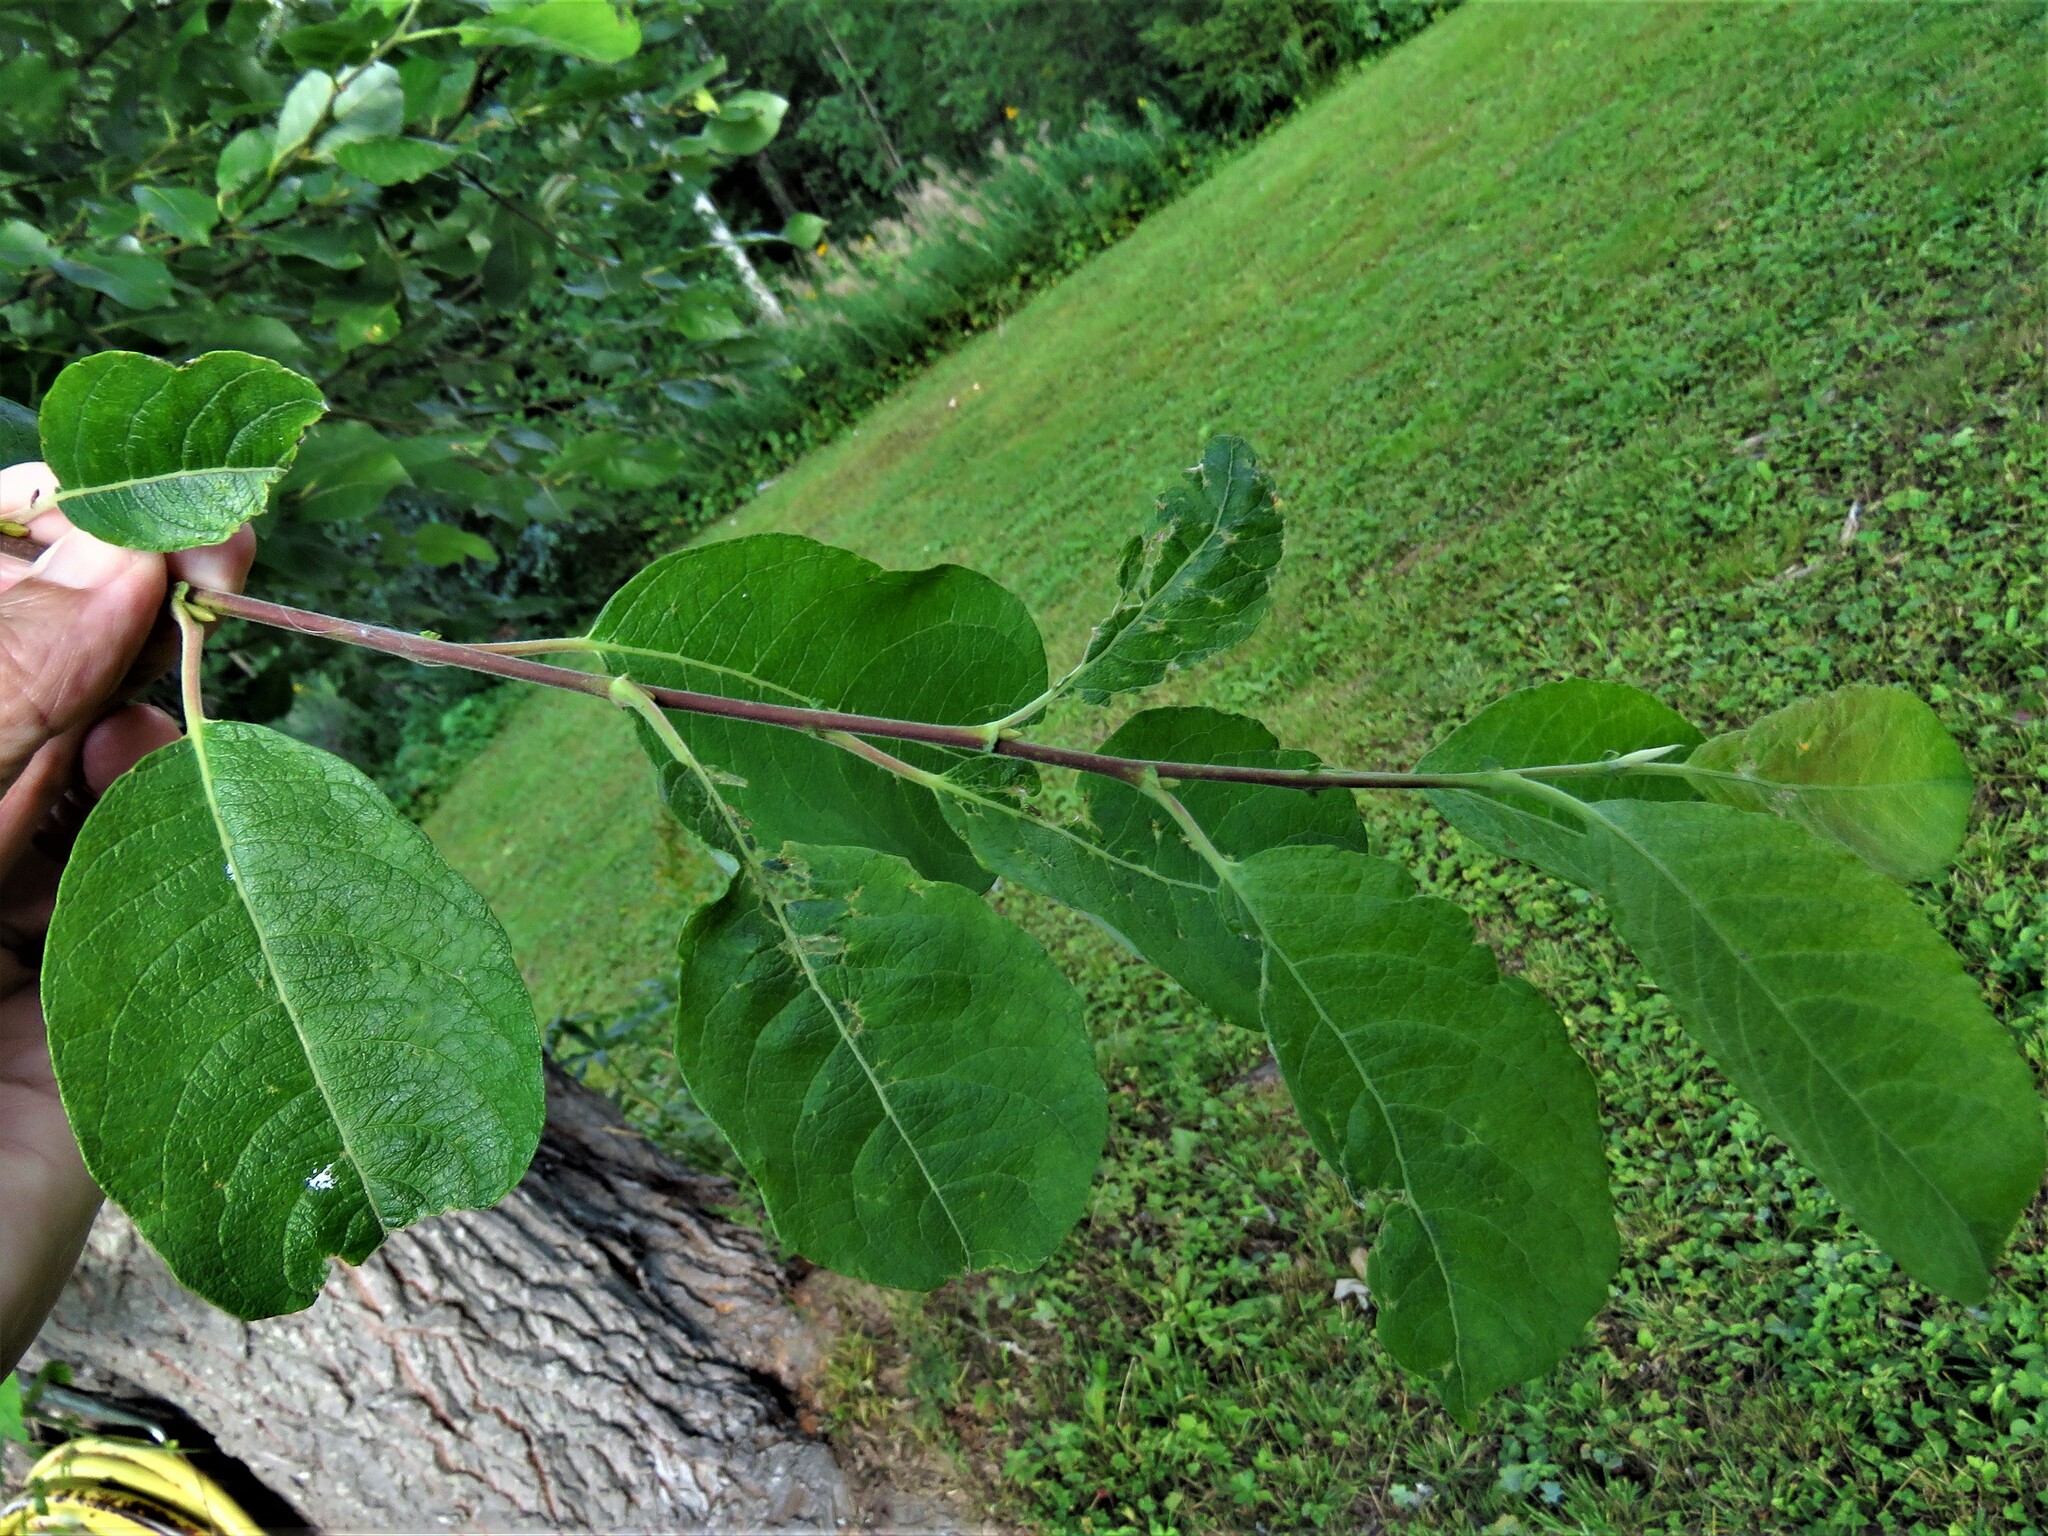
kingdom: Plantae
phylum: Tracheophyta
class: Magnoliopsida
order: Malpighiales
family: Salicaceae
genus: Salix
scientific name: Salix caprea
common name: Goat willow
